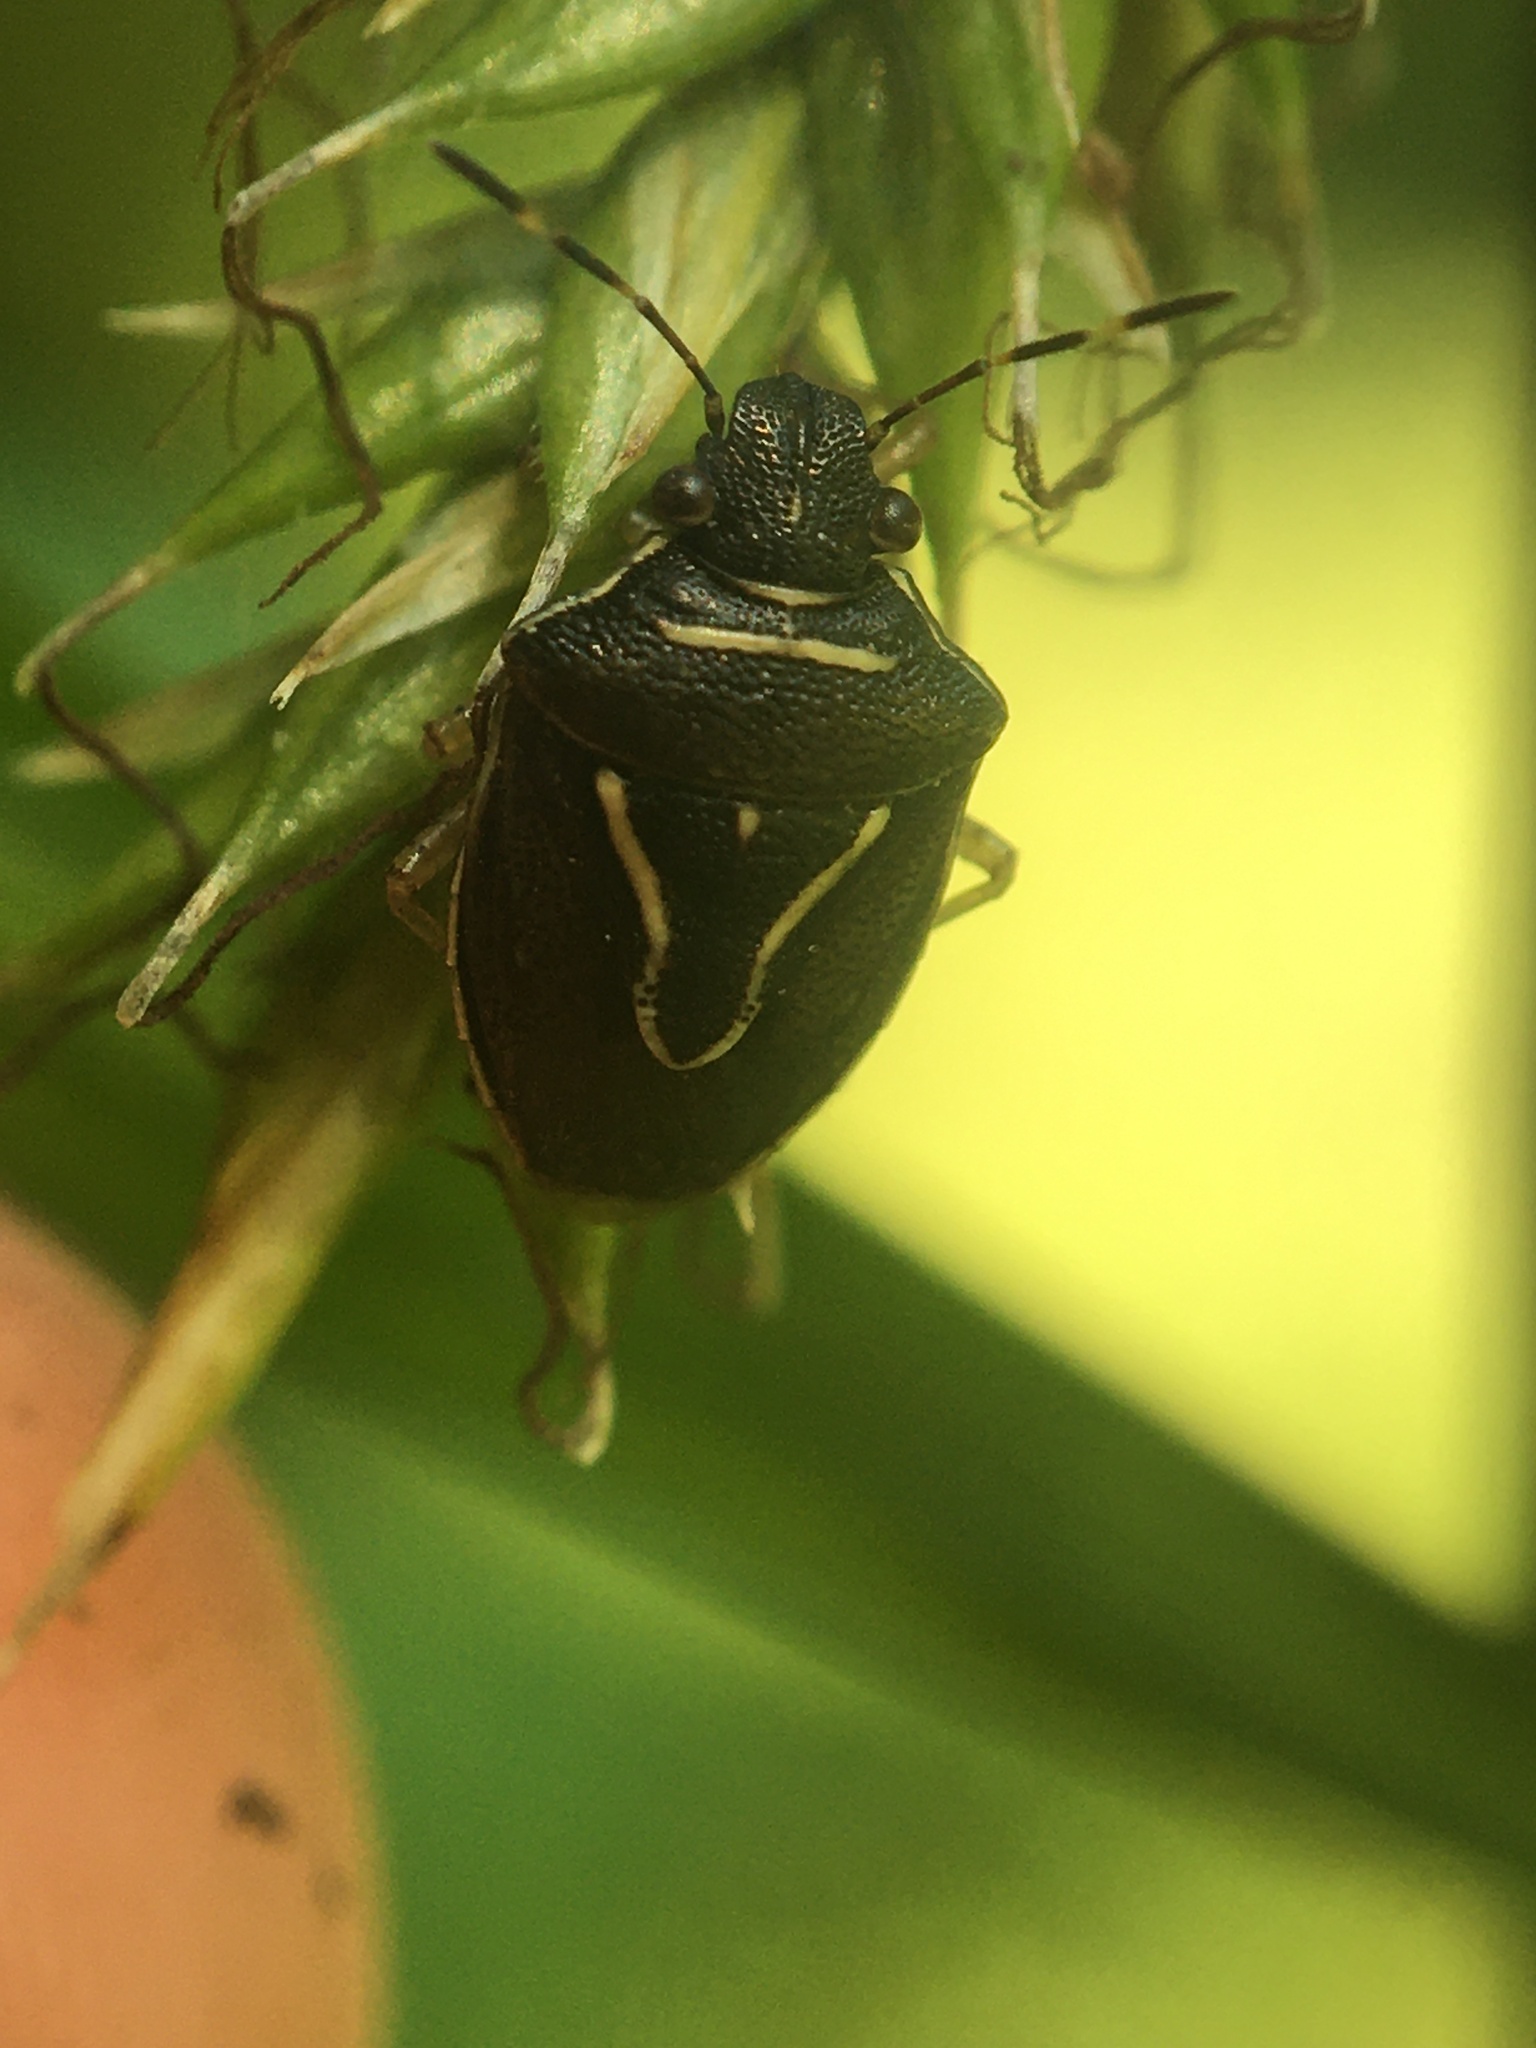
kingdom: Animalia
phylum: Arthropoda
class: Insecta
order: Hemiptera
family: Pentatomidae
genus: Mormidea
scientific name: Mormidea lugens
